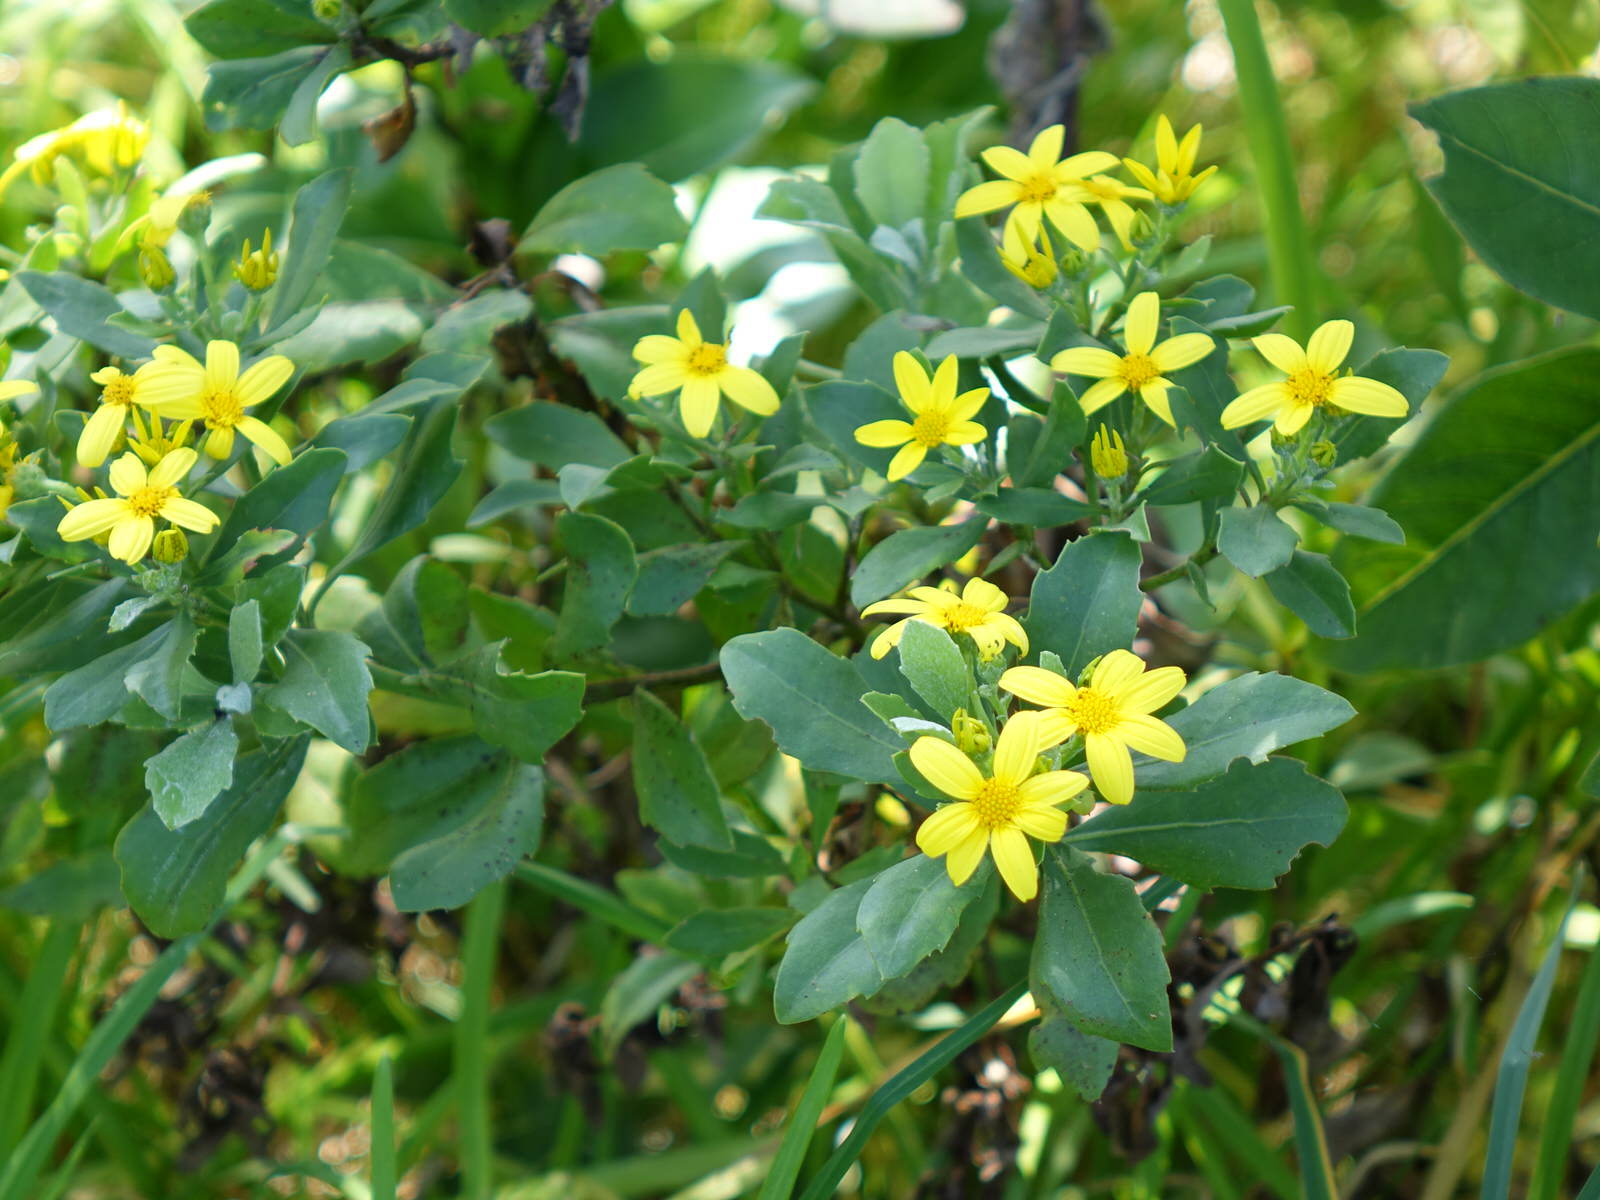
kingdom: Plantae
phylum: Tracheophyta
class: Magnoliopsida
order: Asterales
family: Asteraceae
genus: Osteospermum
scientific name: Osteospermum moniliferum
